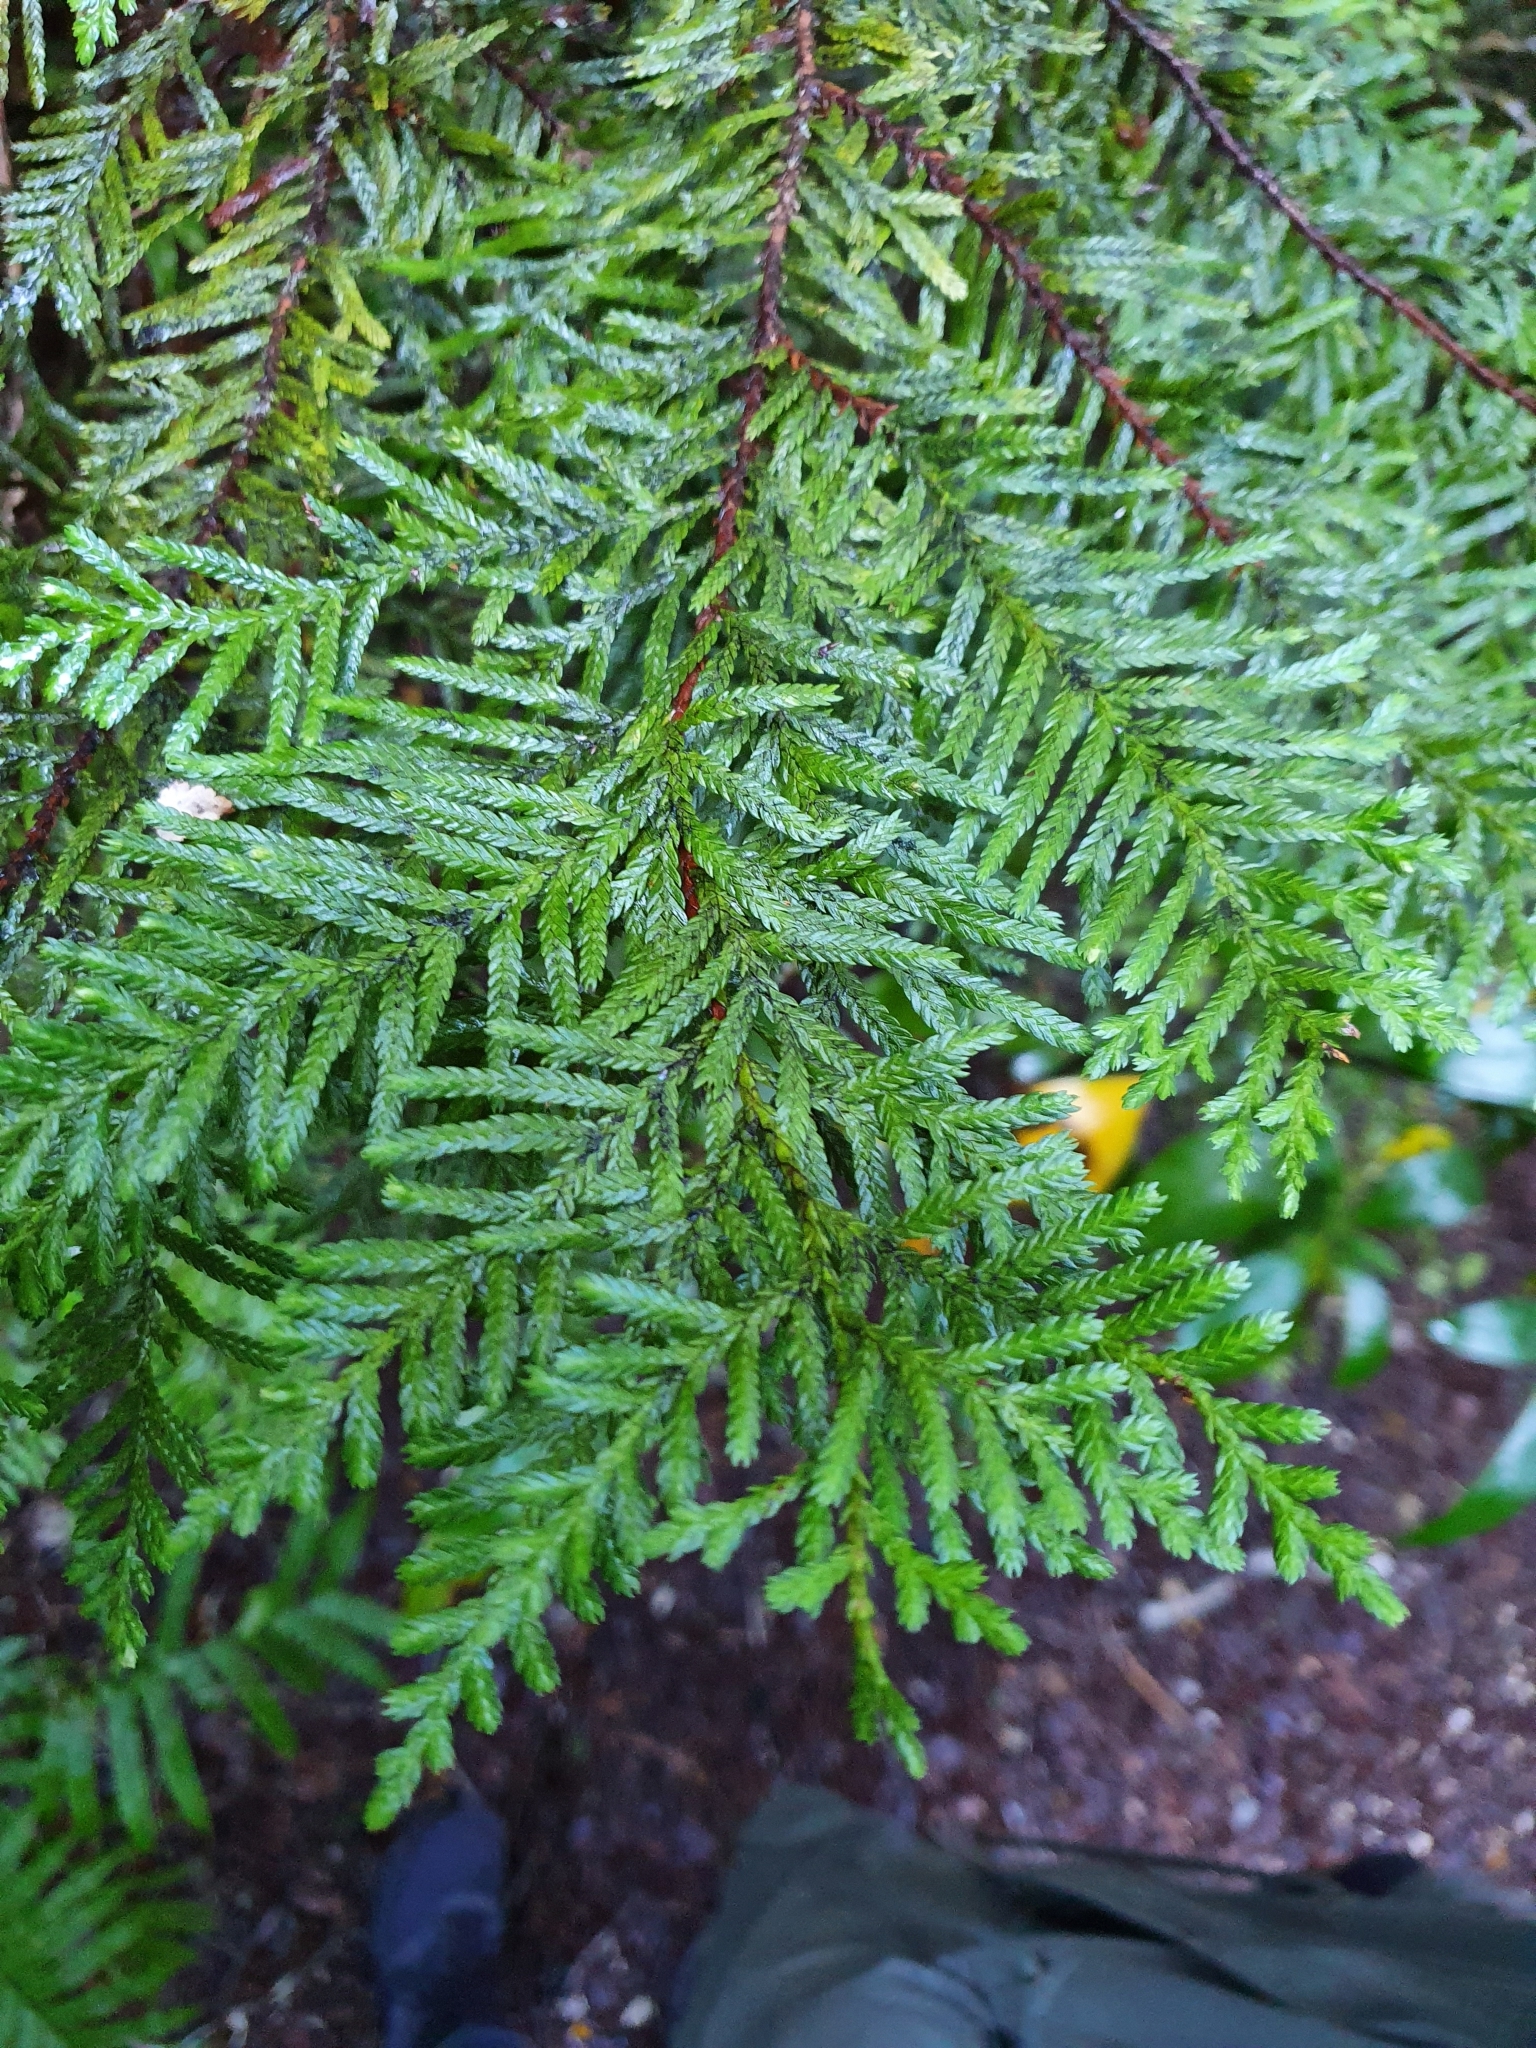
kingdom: Plantae
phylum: Tracheophyta
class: Pinopsida
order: Pinales
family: Cupressaceae
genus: Libocedrus
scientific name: Libocedrus plumosa
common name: New zealand cedar
